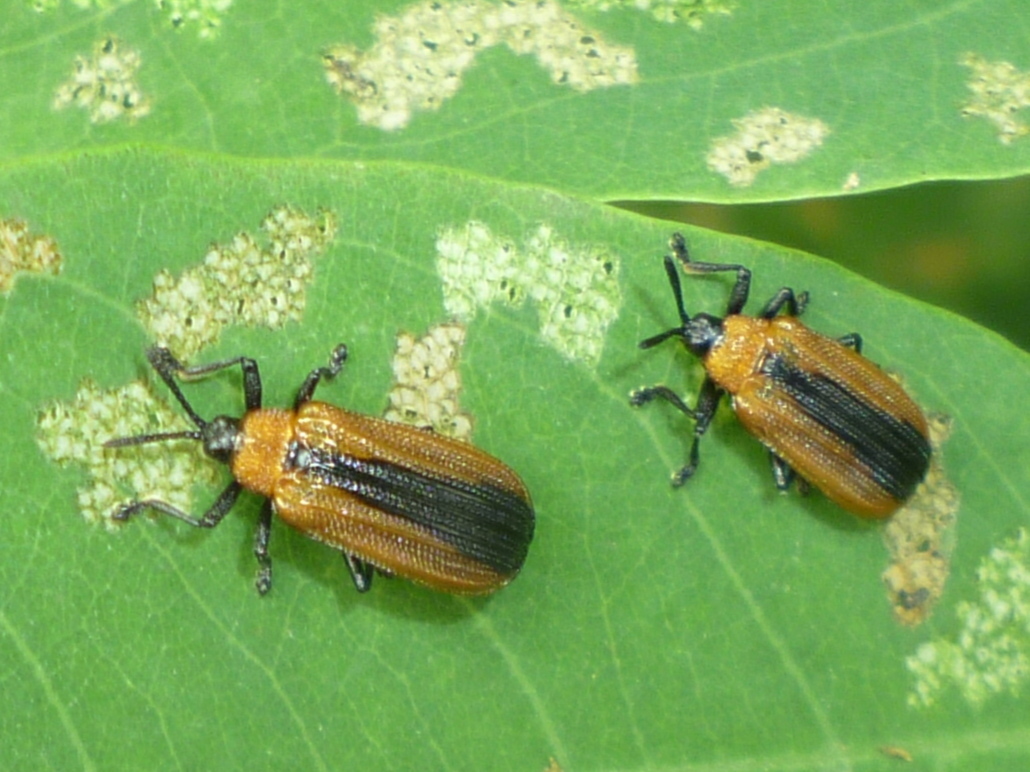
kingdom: Animalia
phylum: Arthropoda
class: Insecta
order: Coleoptera
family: Chrysomelidae
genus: Odontota
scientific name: Odontota dorsalis
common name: Locust leaf-miner beetle
